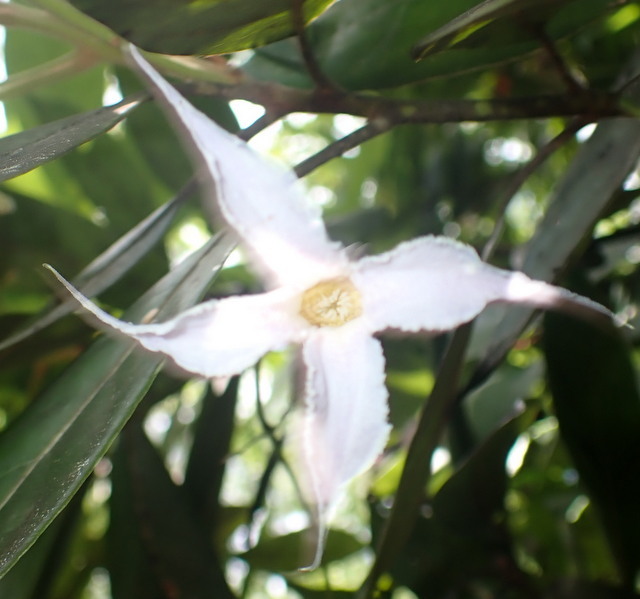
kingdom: Plantae
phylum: Tracheophyta
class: Magnoliopsida
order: Ranunculales
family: Ranunculaceae
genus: Clematis
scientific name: Clematis crispa
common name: Curly clematis
